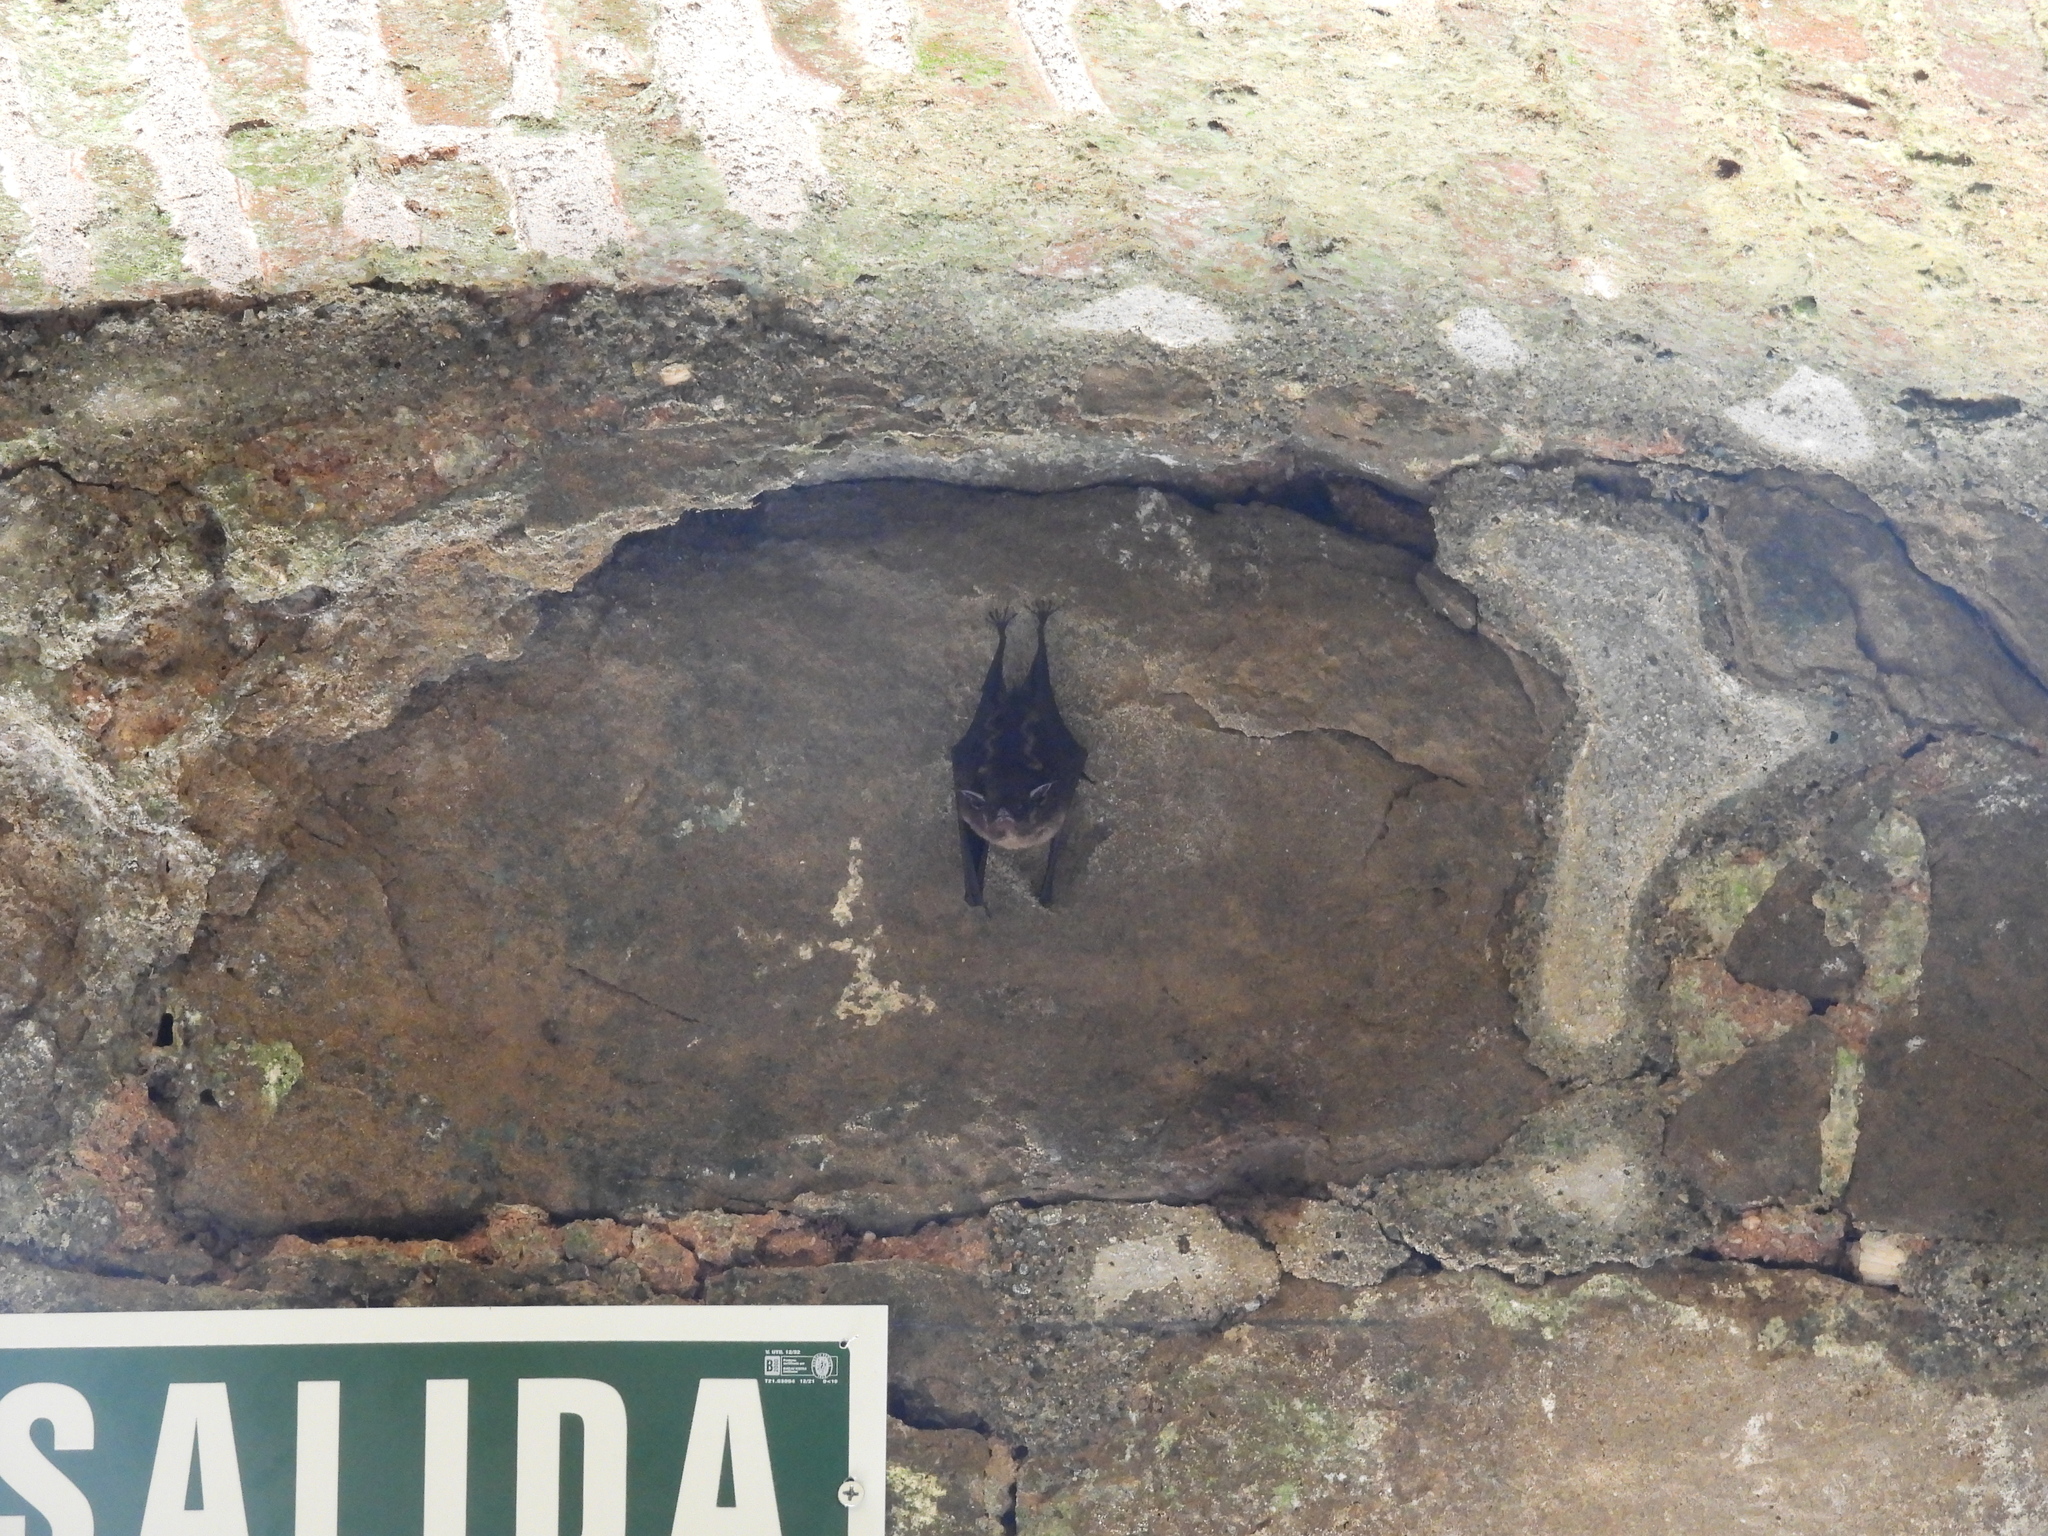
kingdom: Animalia
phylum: Chordata
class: Mammalia
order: Chiroptera
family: Emballonuridae
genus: Saccopteryx
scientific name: Saccopteryx bilineata
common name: Greater sac-winged bat
